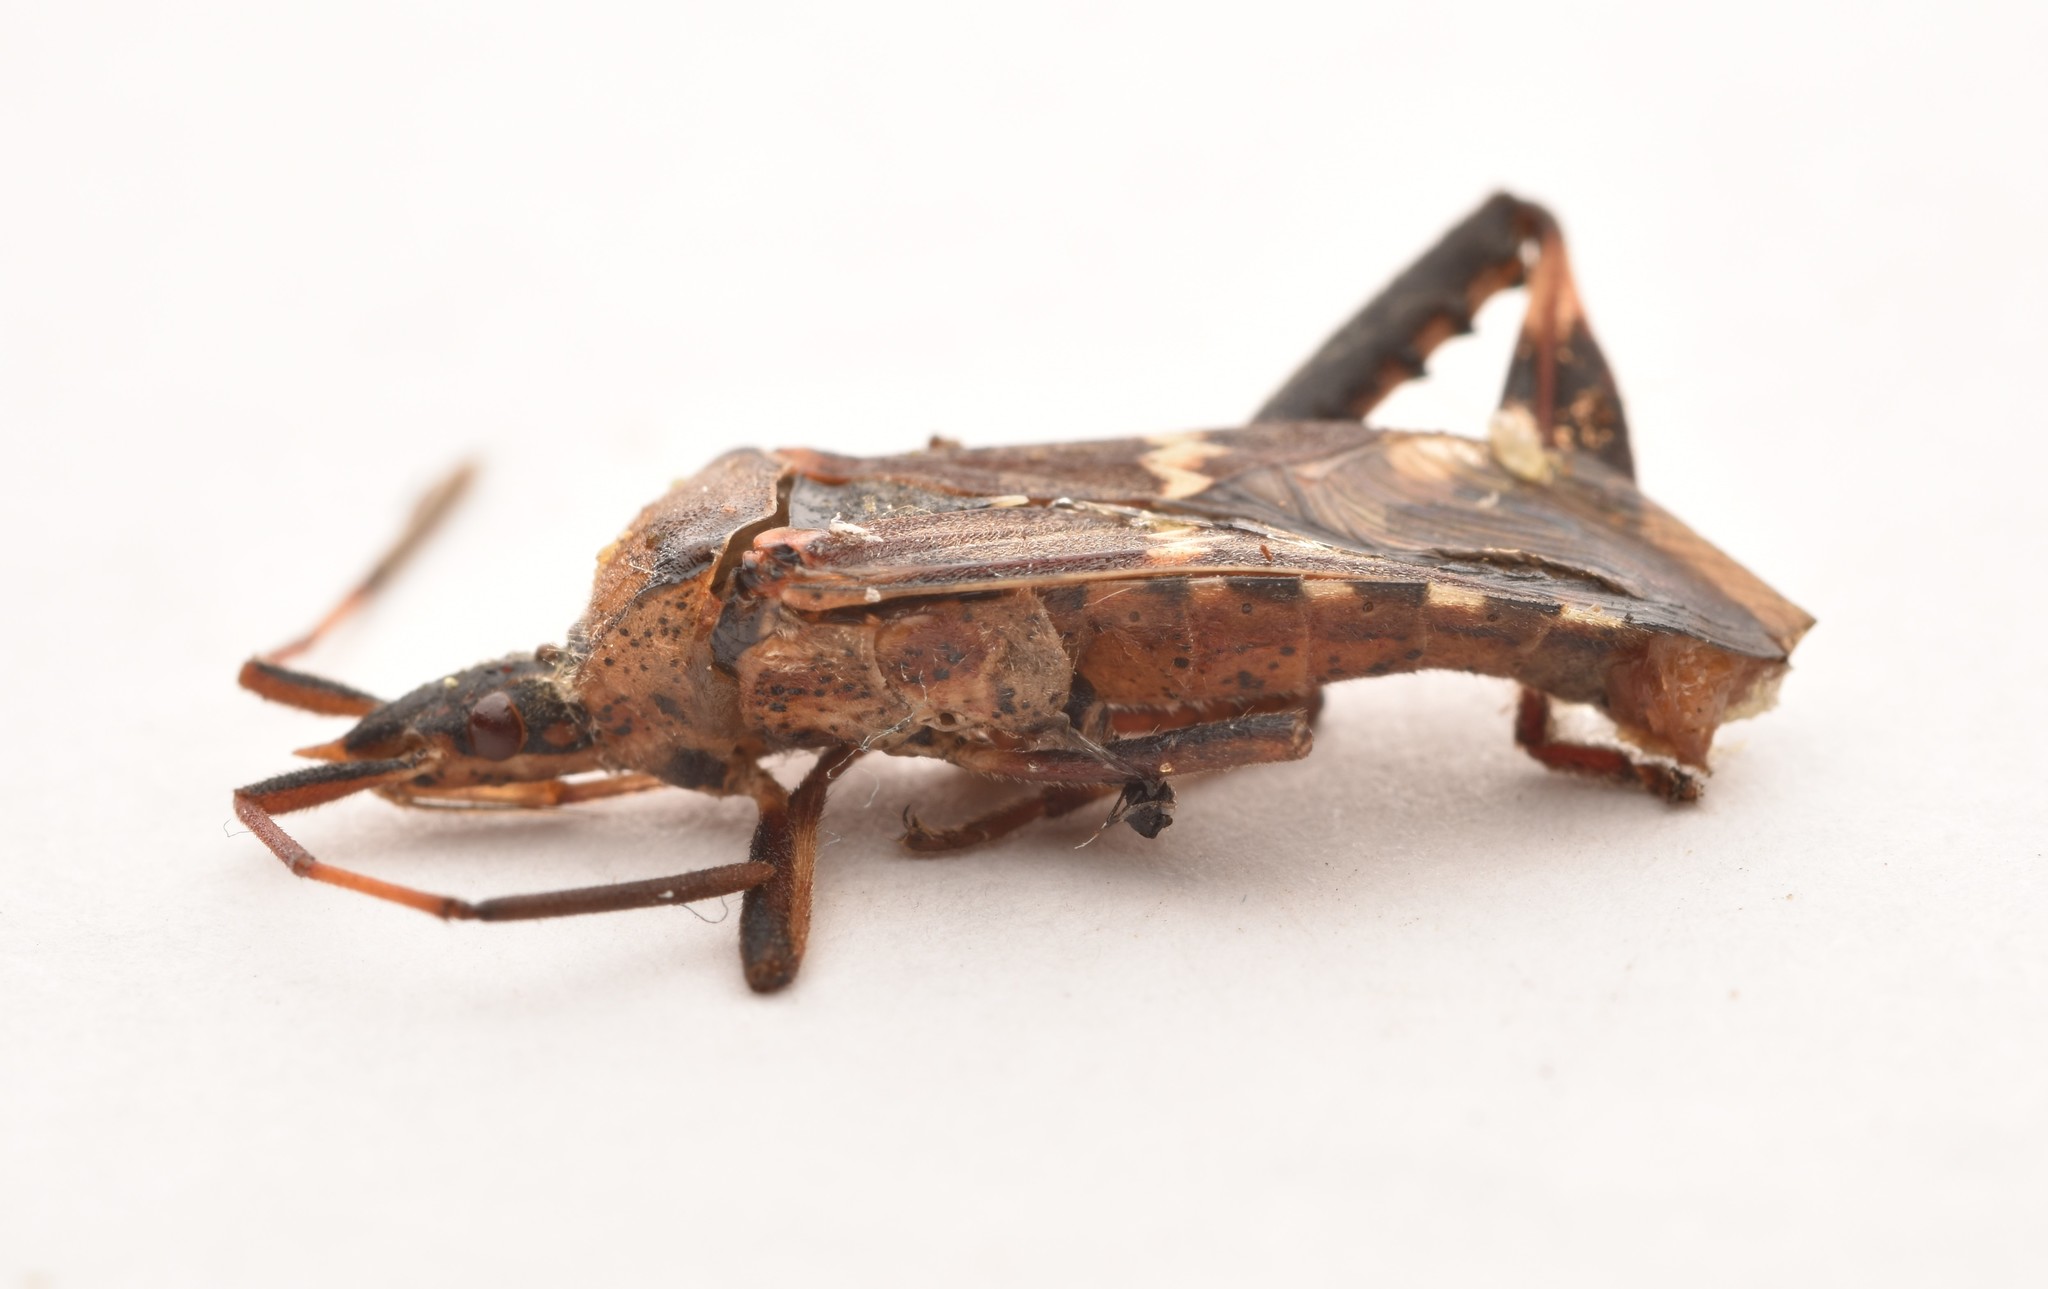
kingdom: Animalia
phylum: Arthropoda
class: Insecta
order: Hemiptera
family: Coreidae
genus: Leptoglossus
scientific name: Leptoglossus clypealis
